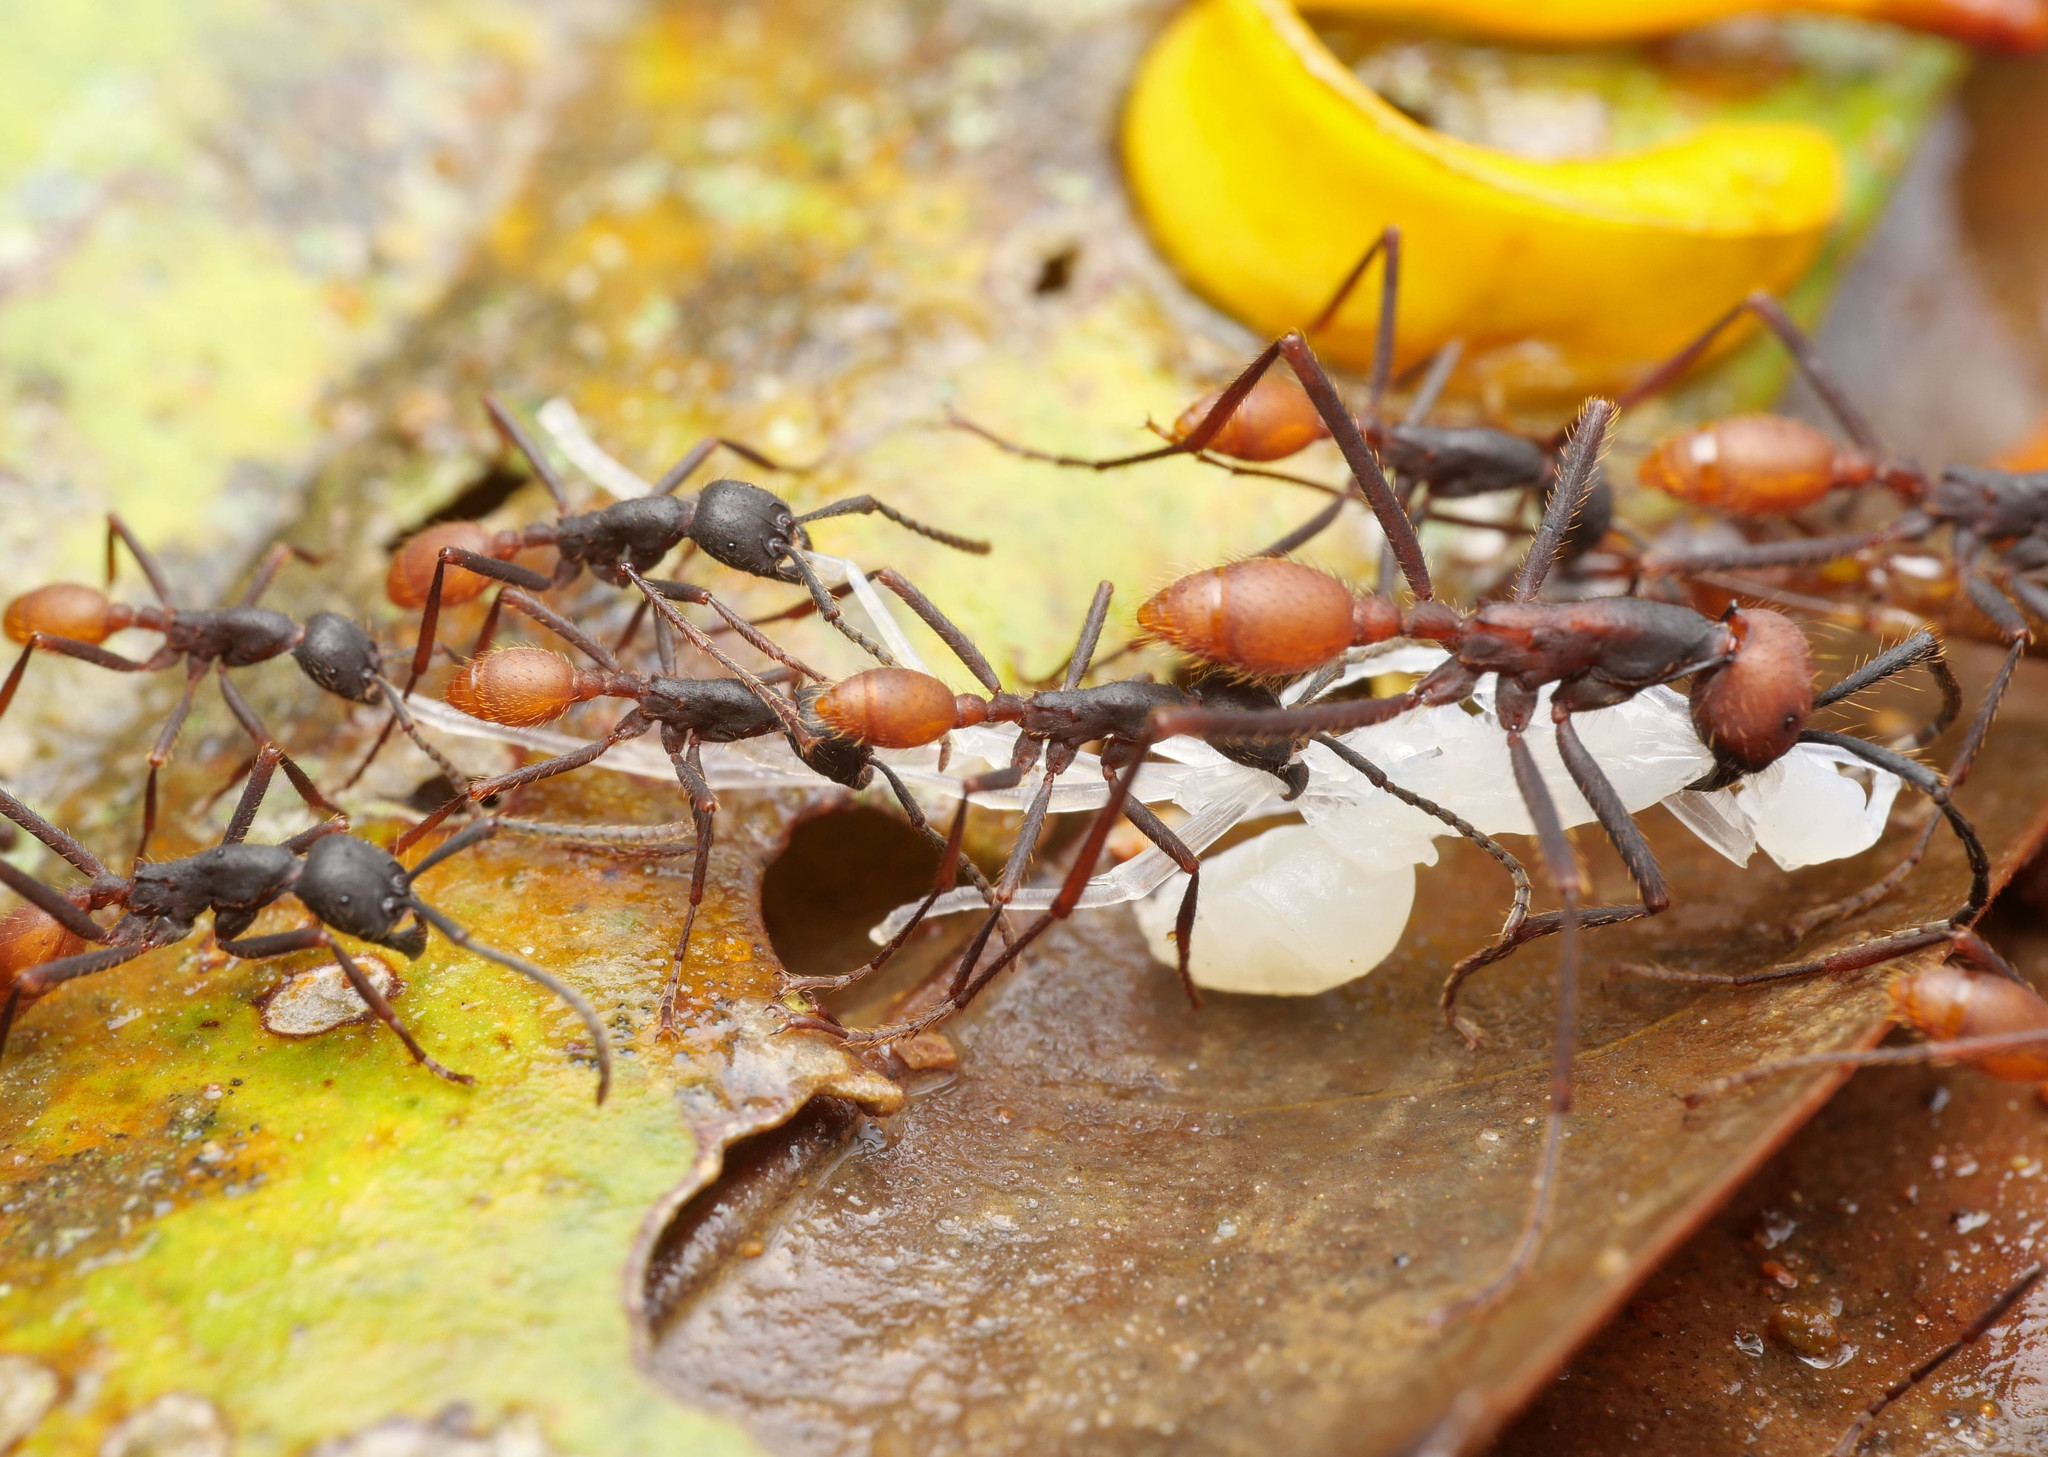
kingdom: Animalia
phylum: Arthropoda
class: Insecta
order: Hymenoptera
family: Formicidae
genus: Eciton
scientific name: Eciton burchellii
